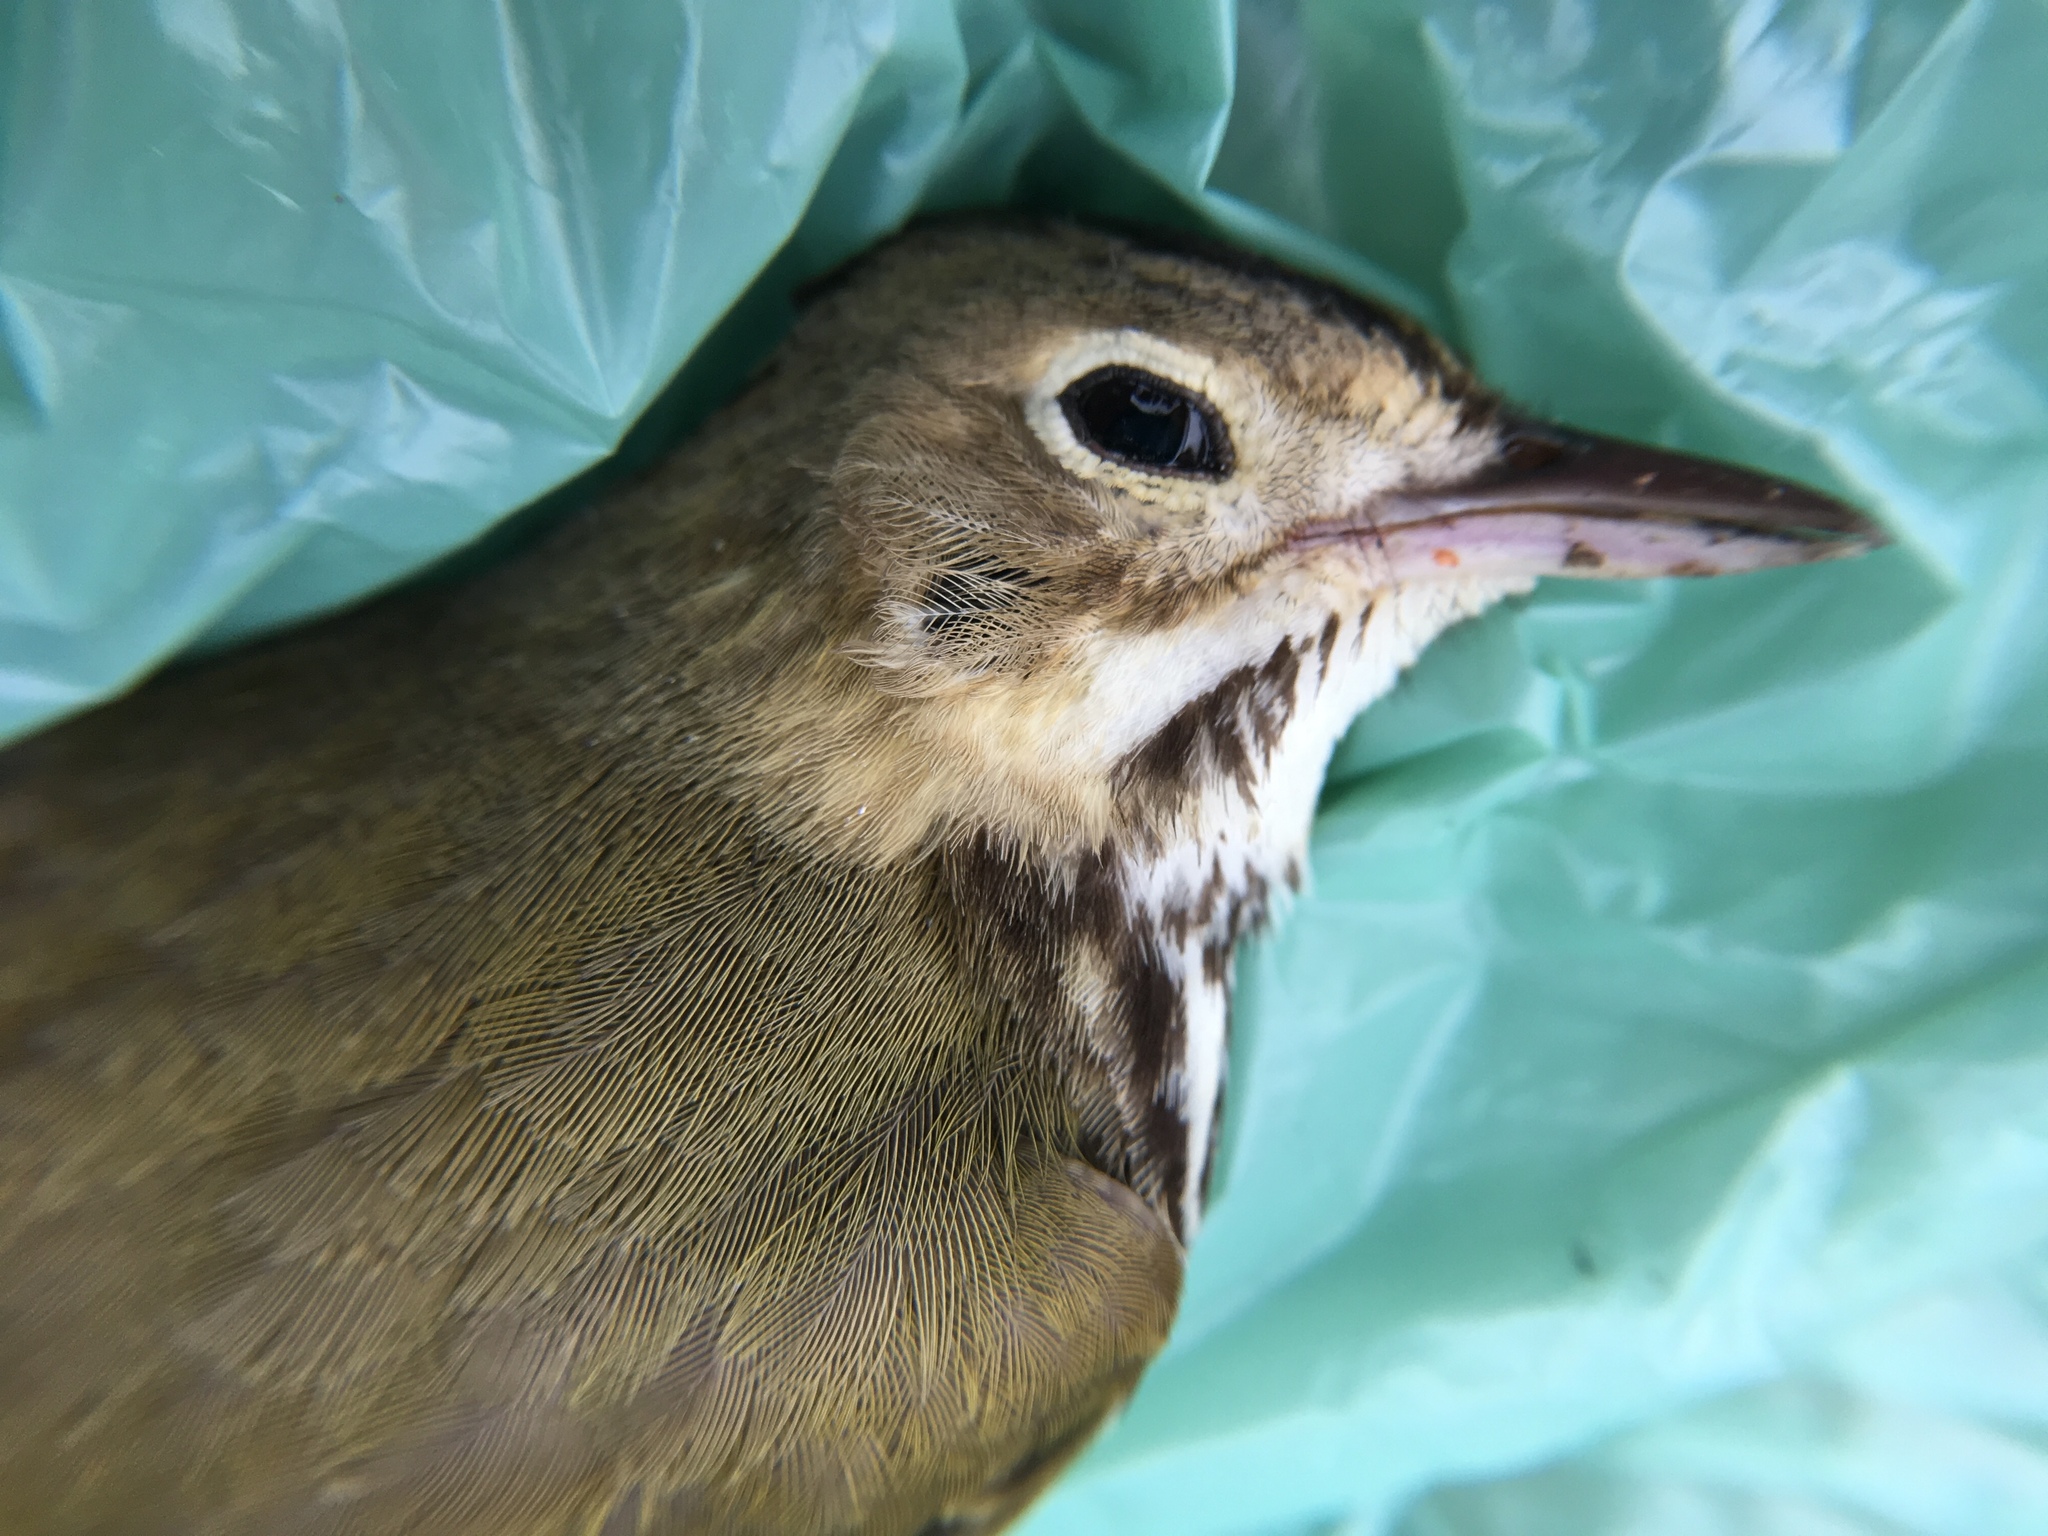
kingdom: Animalia
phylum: Chordata
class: Aves
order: Passeriformes
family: Parulidae
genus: Seiurus
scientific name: Seiurus aurocapilla
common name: Ovenbird
